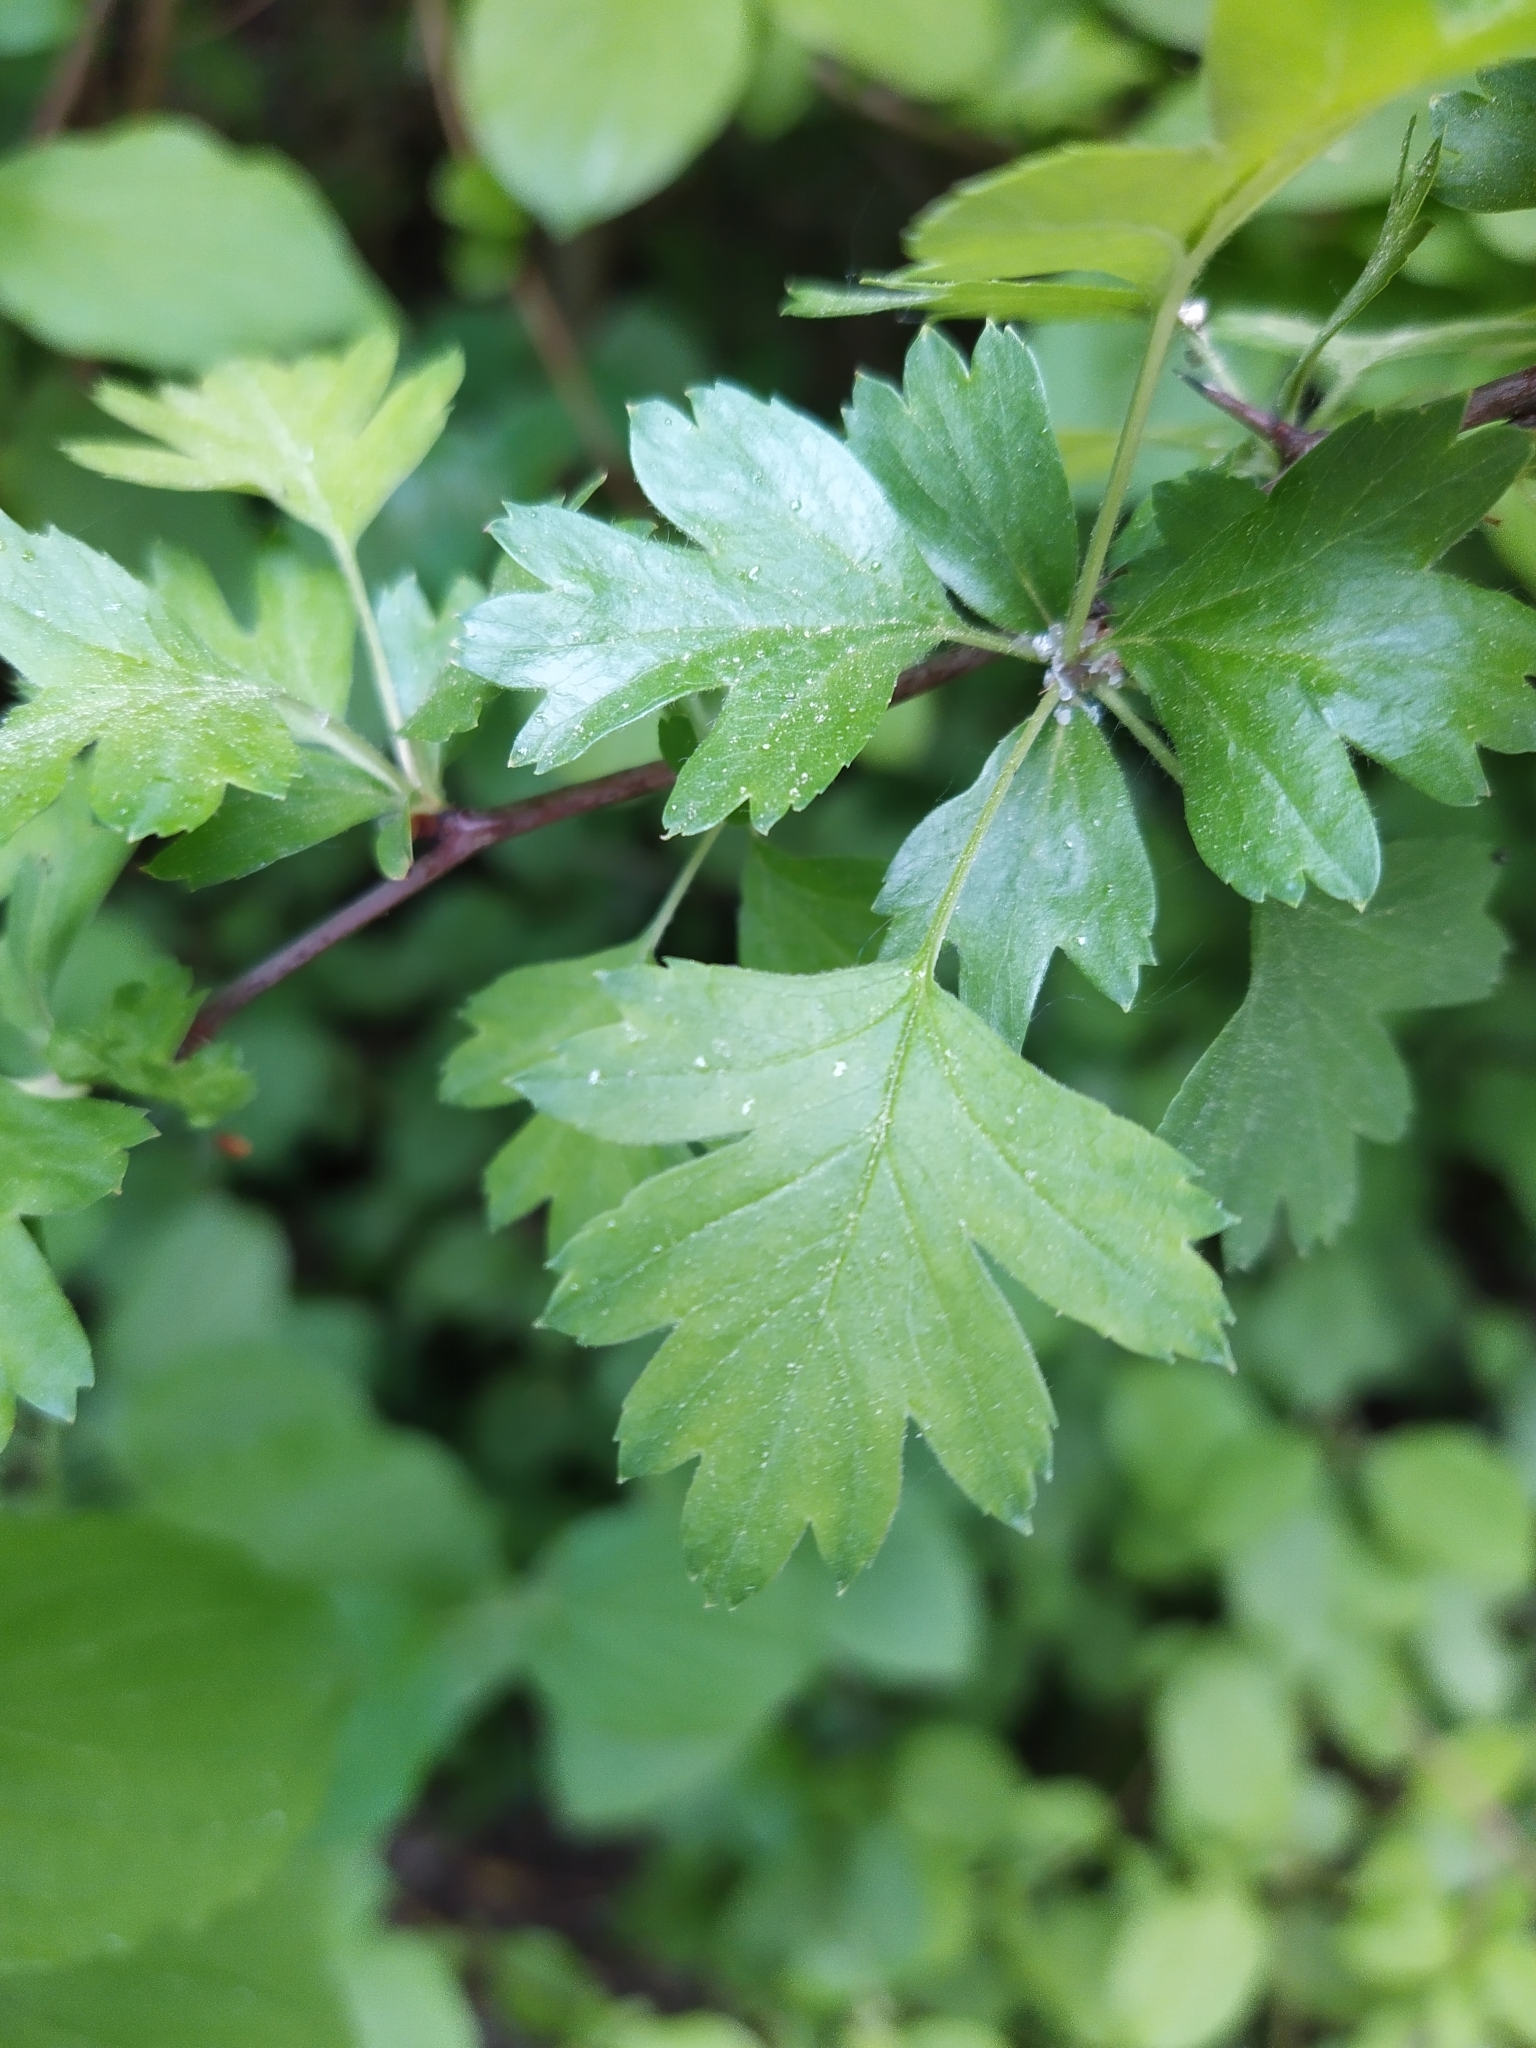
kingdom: Plantae
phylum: Tracheophyta
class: Magnoliopsida
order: Rosales
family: Rosaceae
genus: Crataegus
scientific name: Crataegus monogyna
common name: Hawthorn
